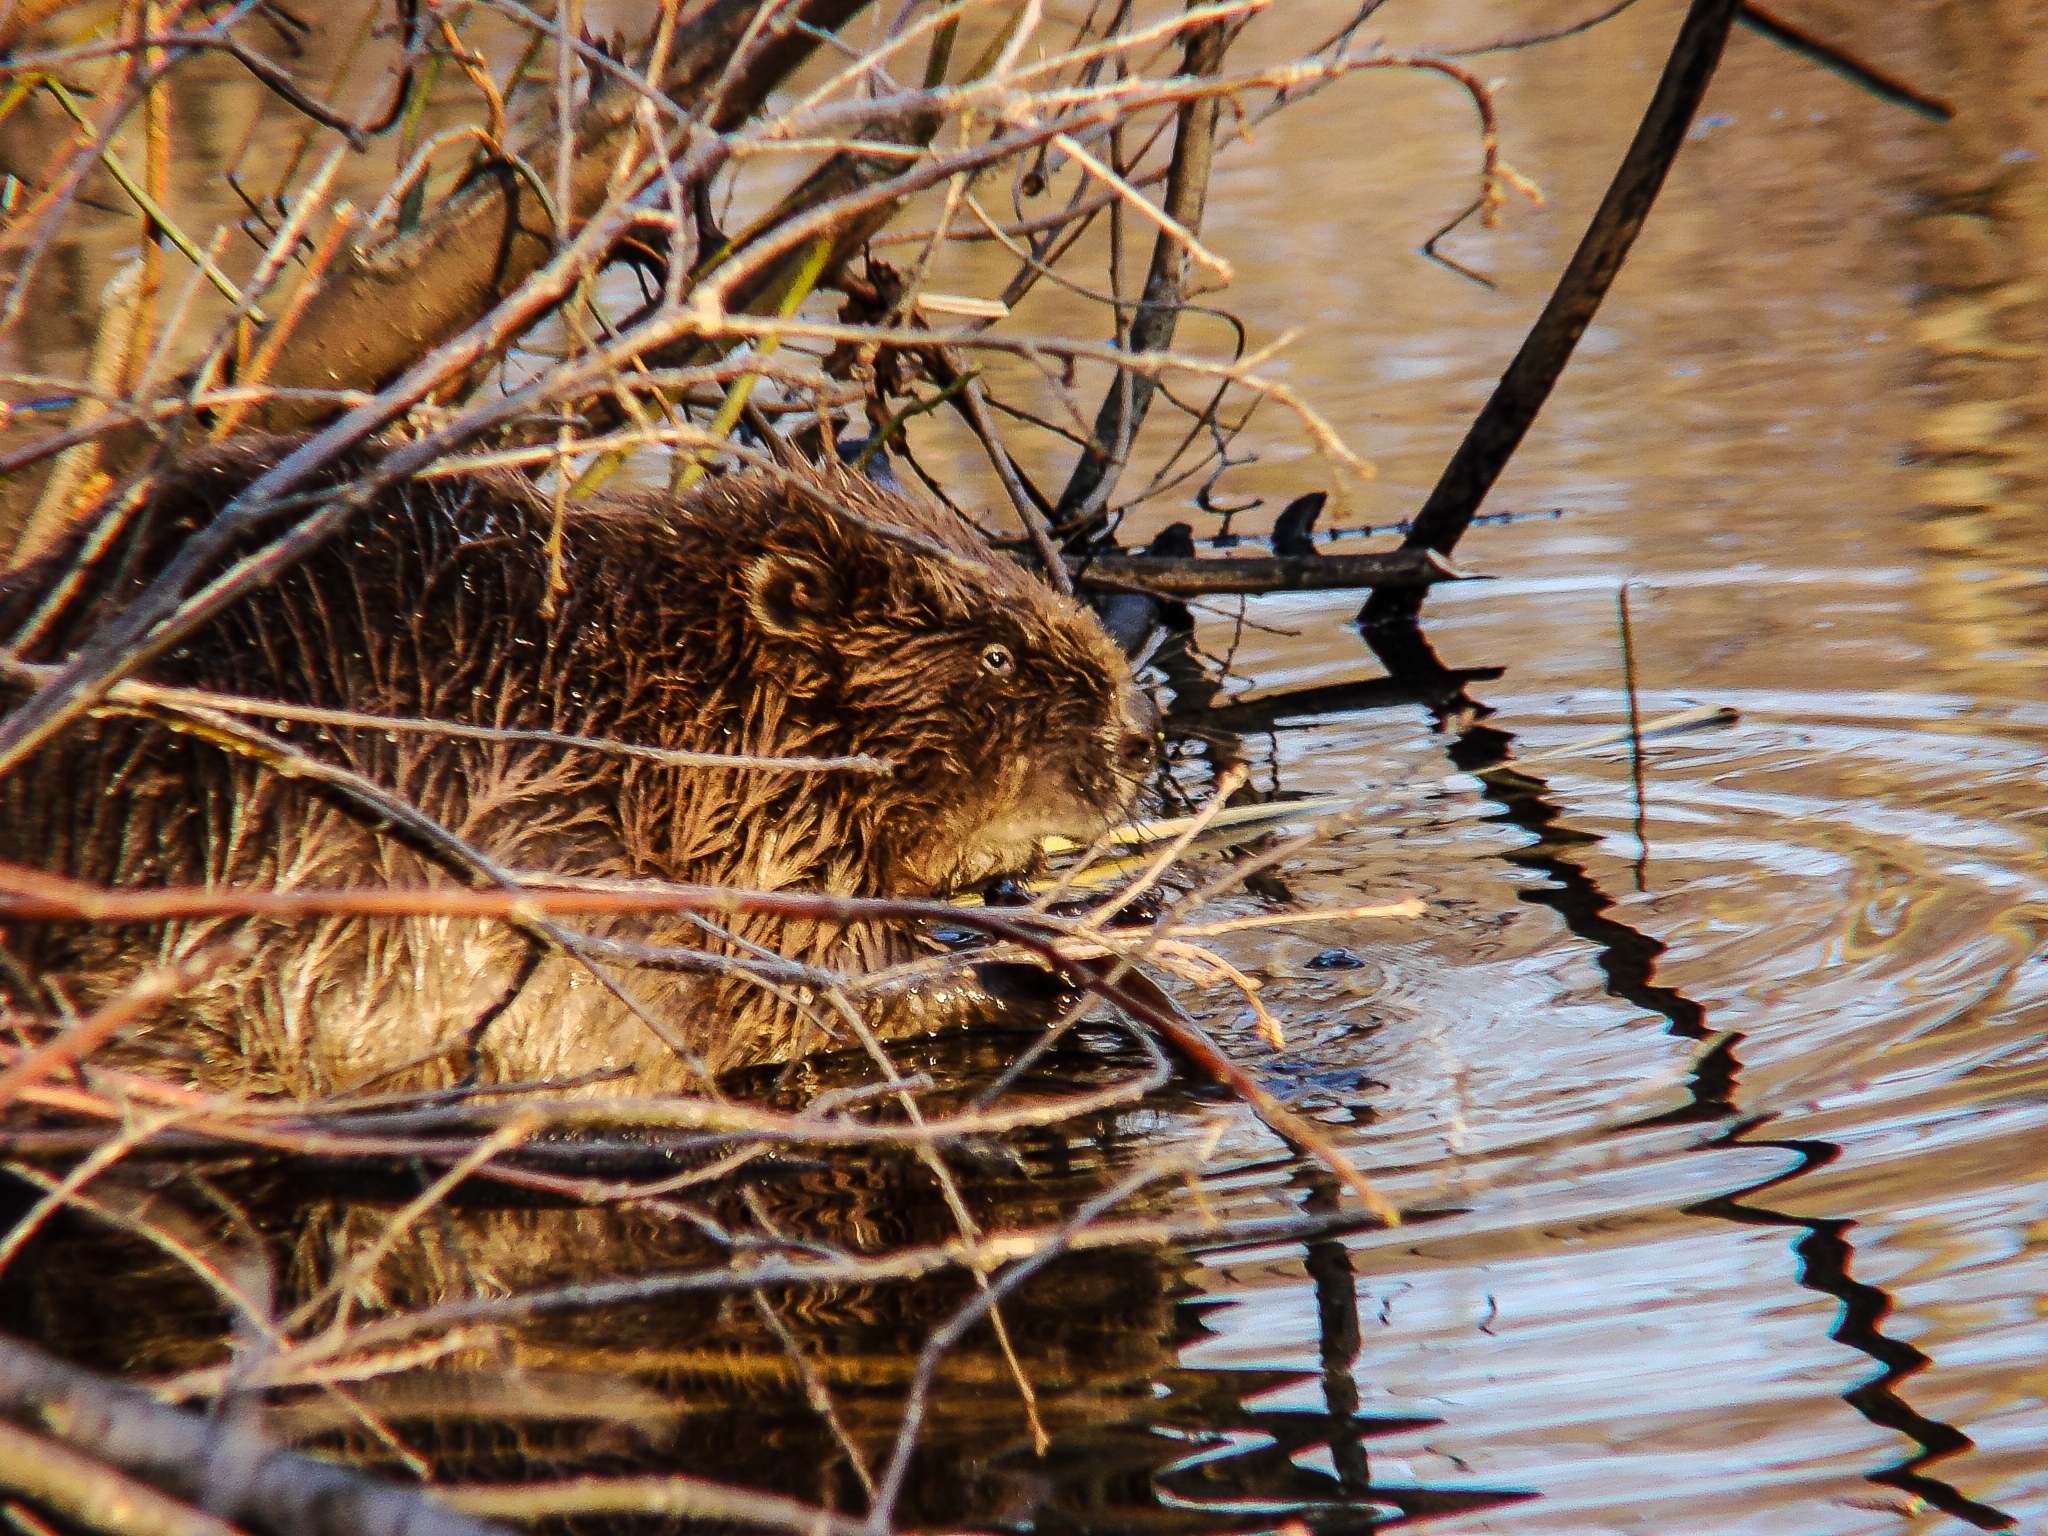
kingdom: Animalia
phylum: Chordata
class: Mammalia
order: Rodentia
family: Castoridae
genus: Castor
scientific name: Castor fiber
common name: Eurasian beaver
